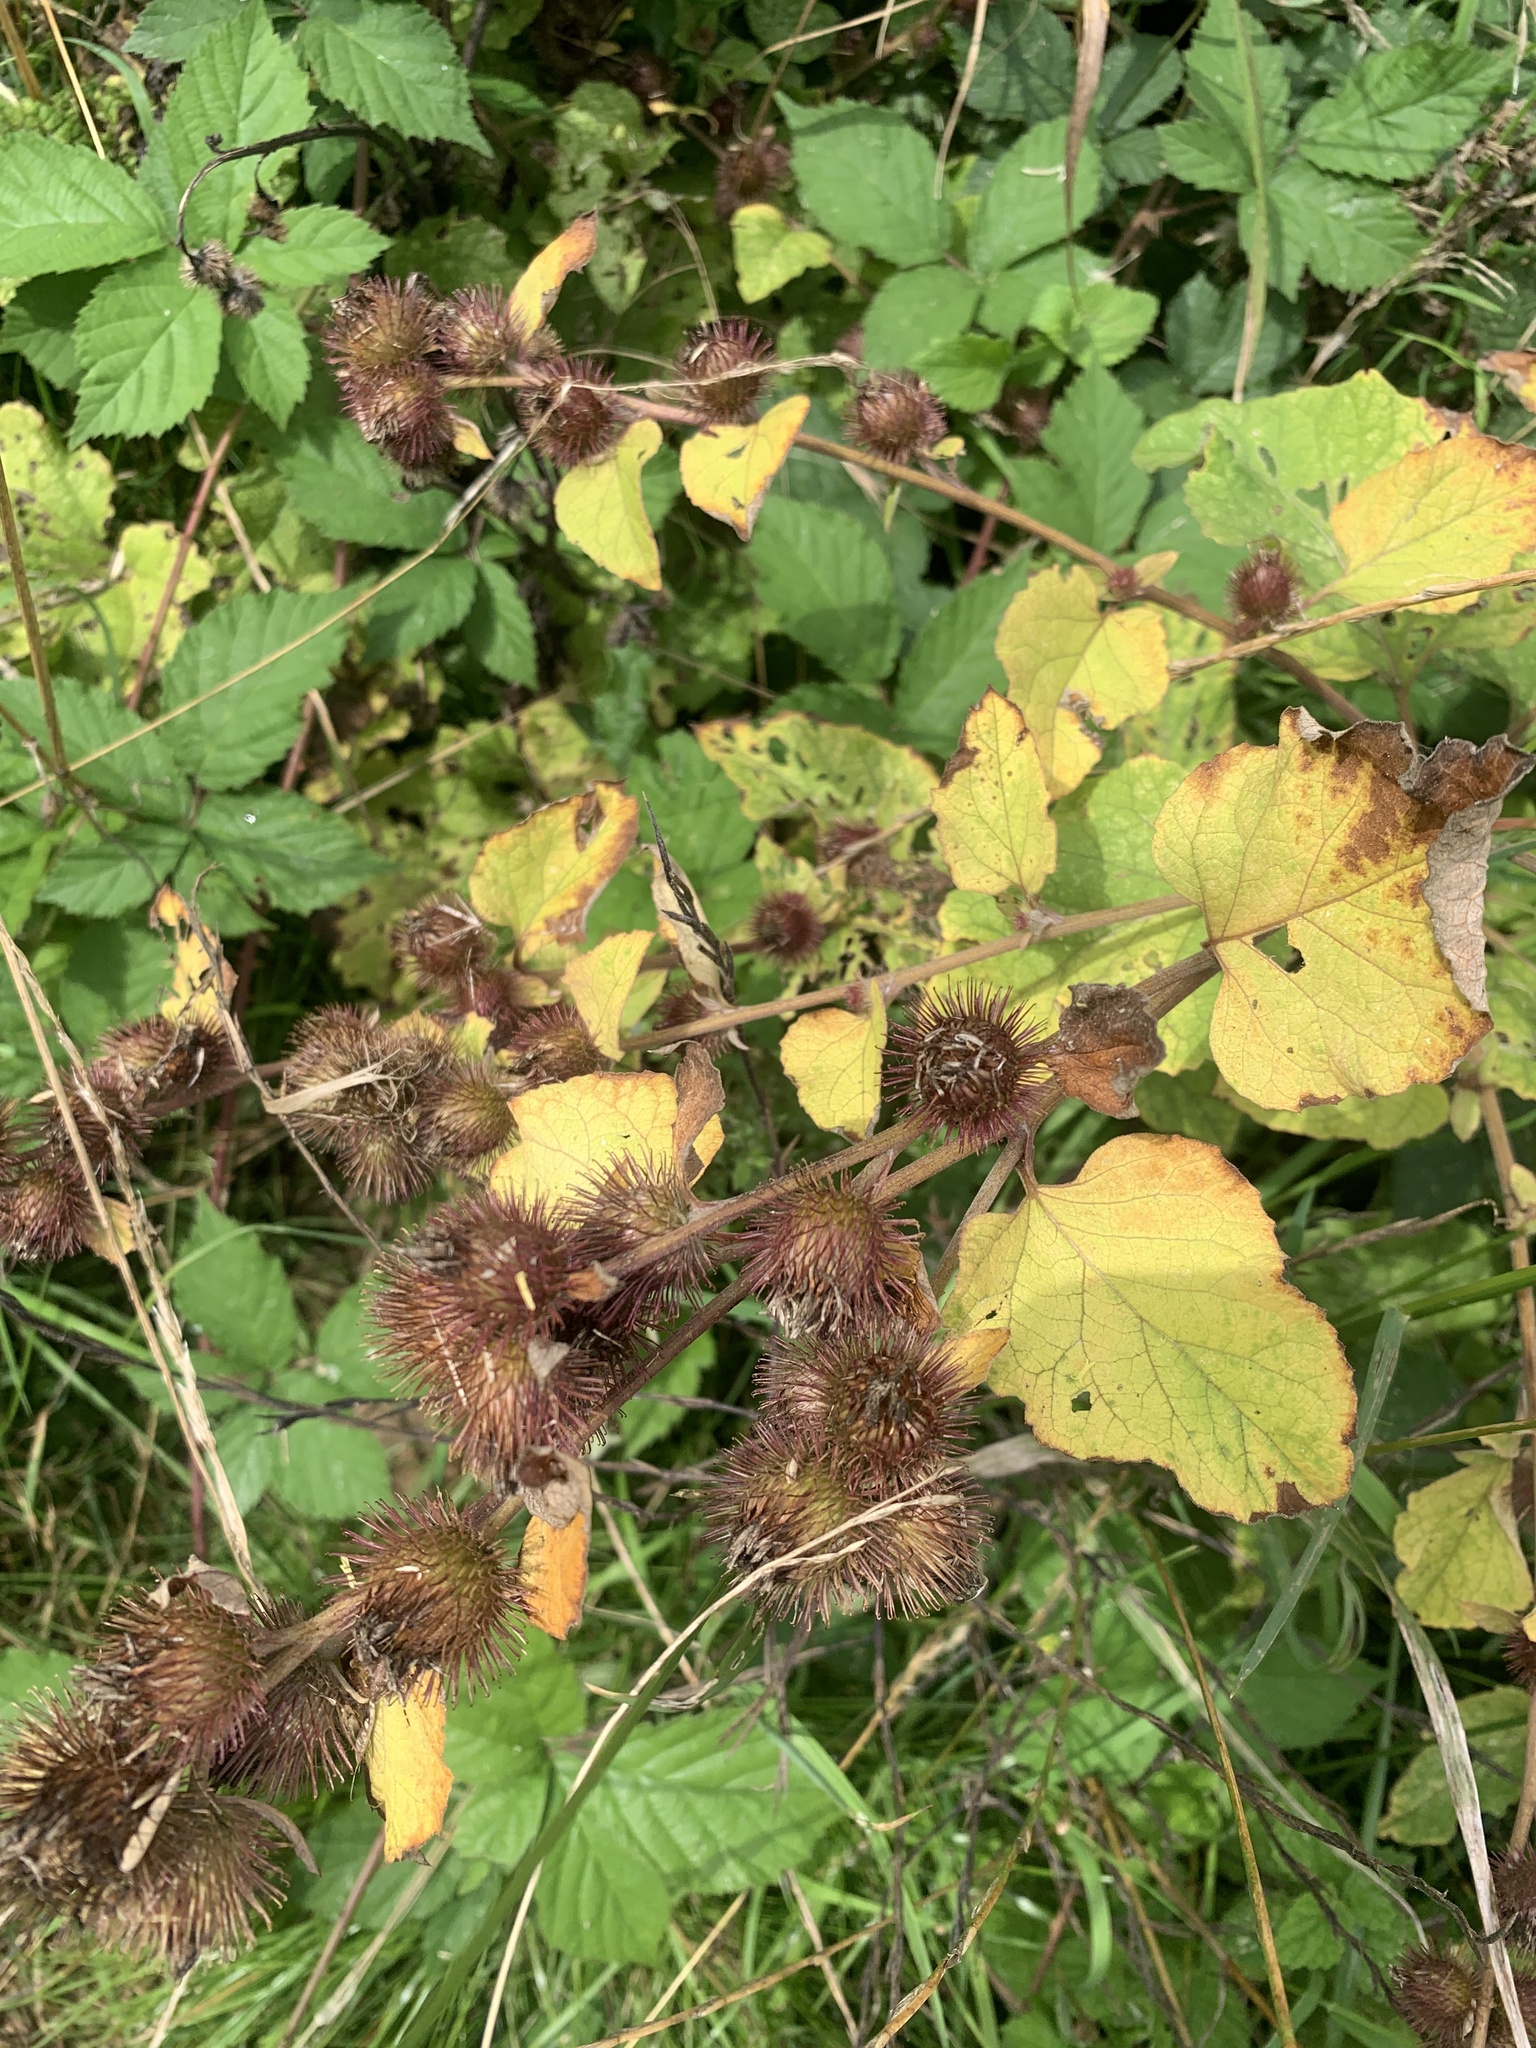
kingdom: Plantae
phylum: Tracheophyta
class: Magnoliopsida
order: Asterales
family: Asteraceae
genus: Arctium
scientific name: Arctium minus
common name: Lesser burdock
